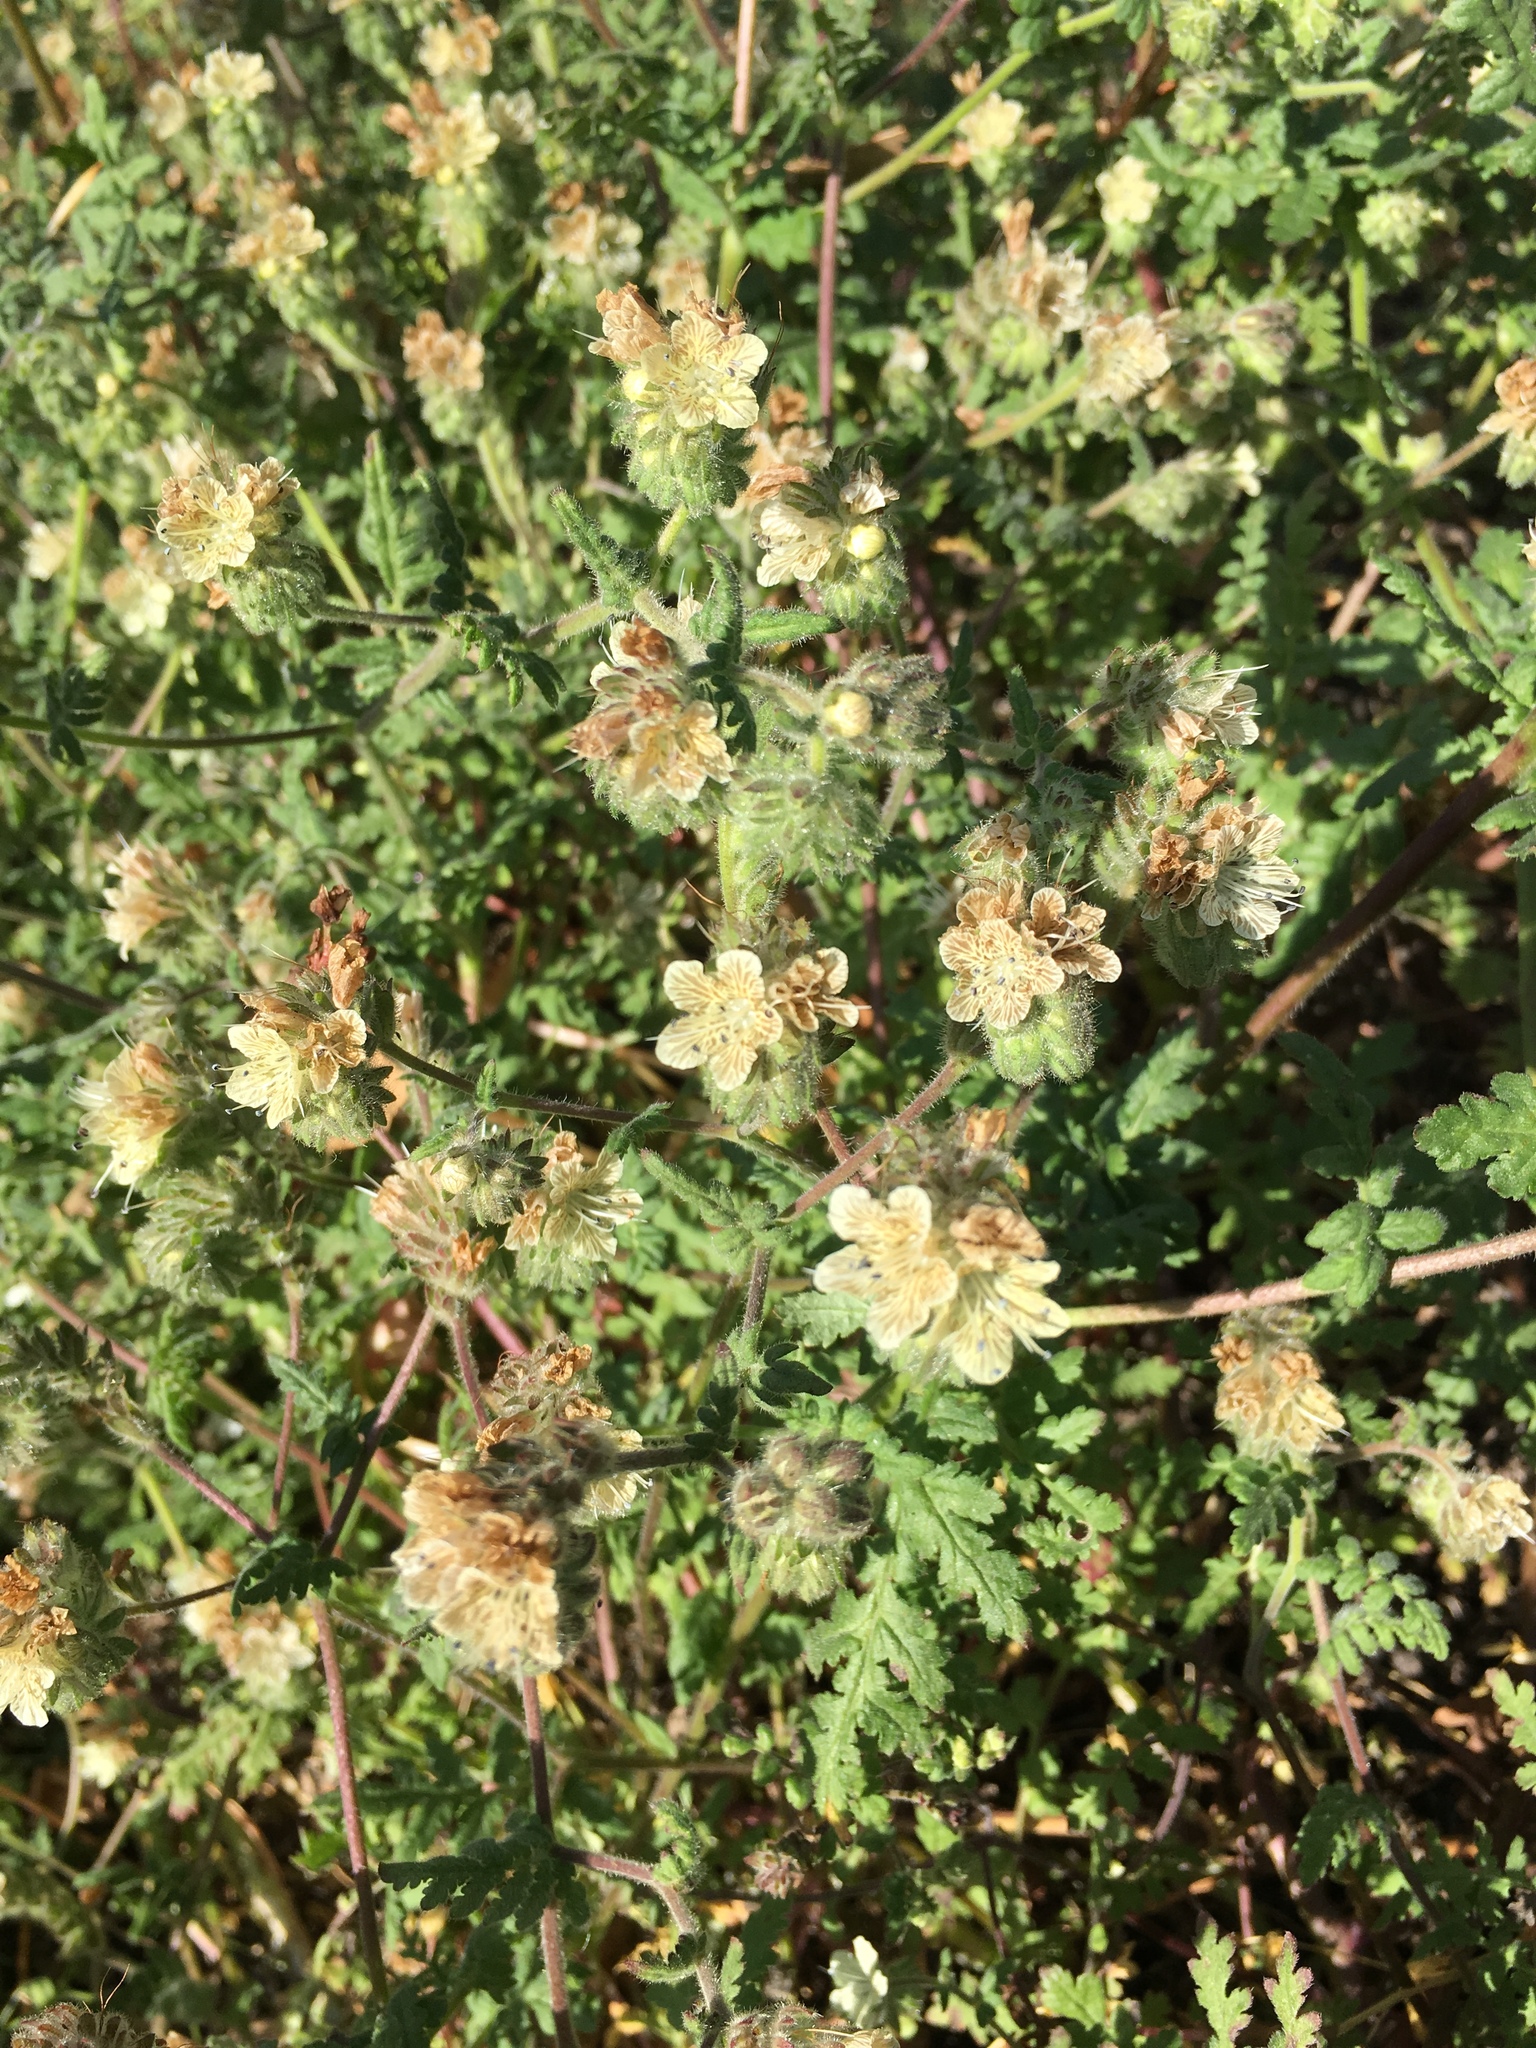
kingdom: Plantae
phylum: Tracheophyta
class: Magnoliopsida
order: Boraginales
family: Hydrophyllaceae
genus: Phacelia
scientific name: Phacelia distans
